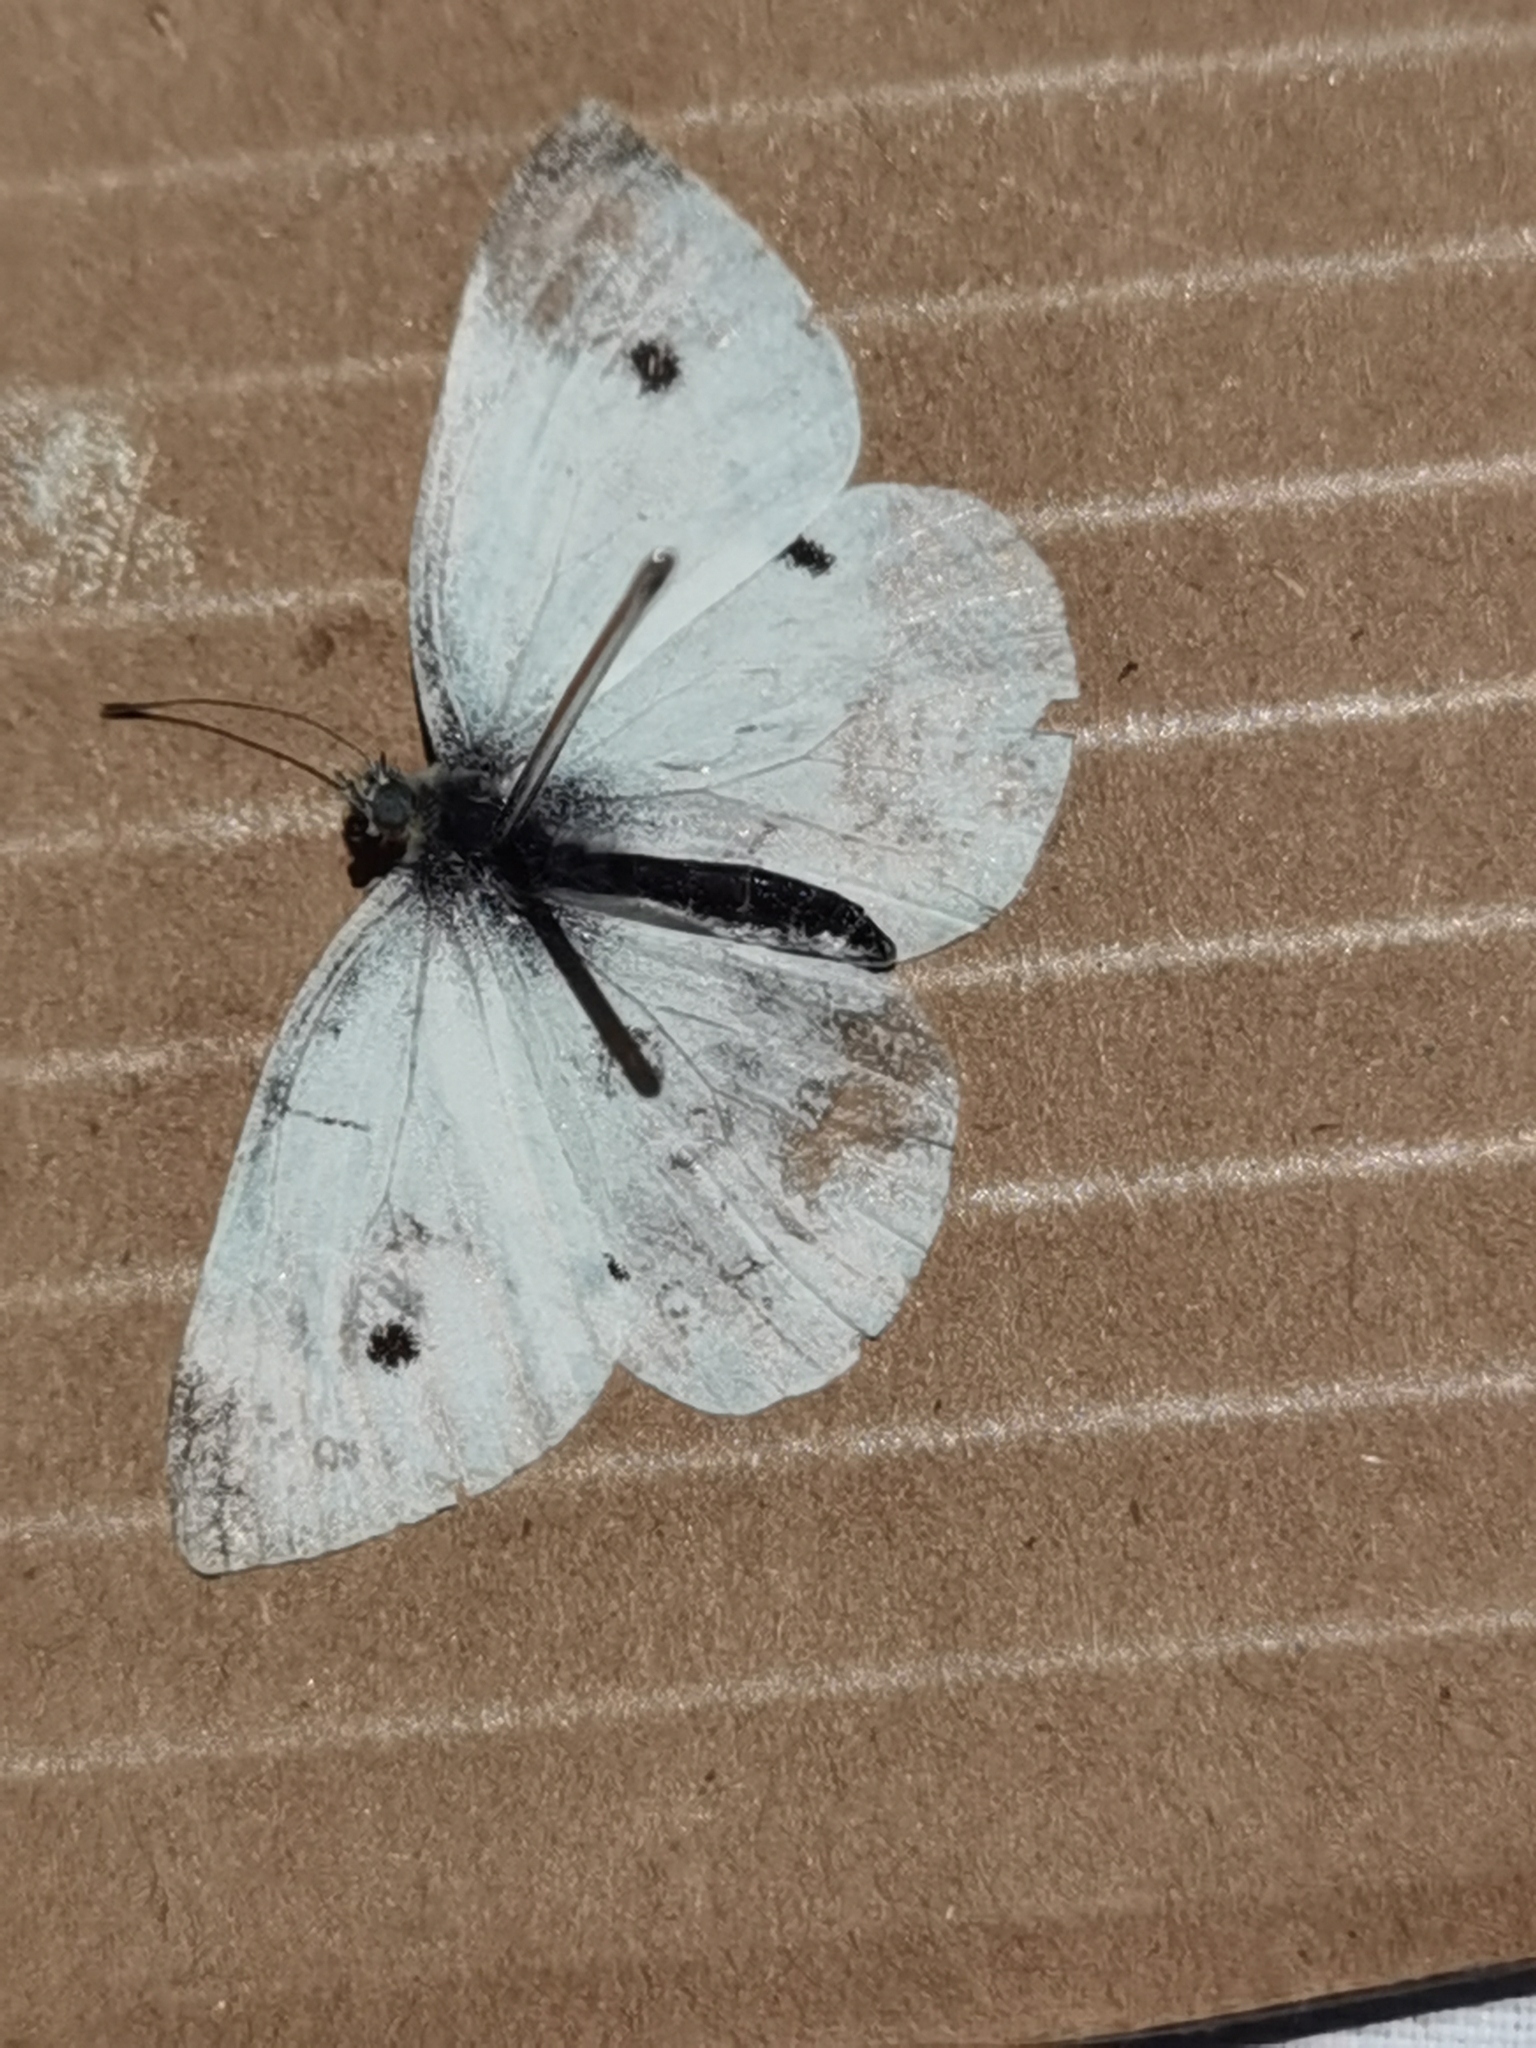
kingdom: Animalia
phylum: Arthropoda
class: Insecta
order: Lepidoptera
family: Pieridae
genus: Pieris
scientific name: Pieris rapae
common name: Small white
